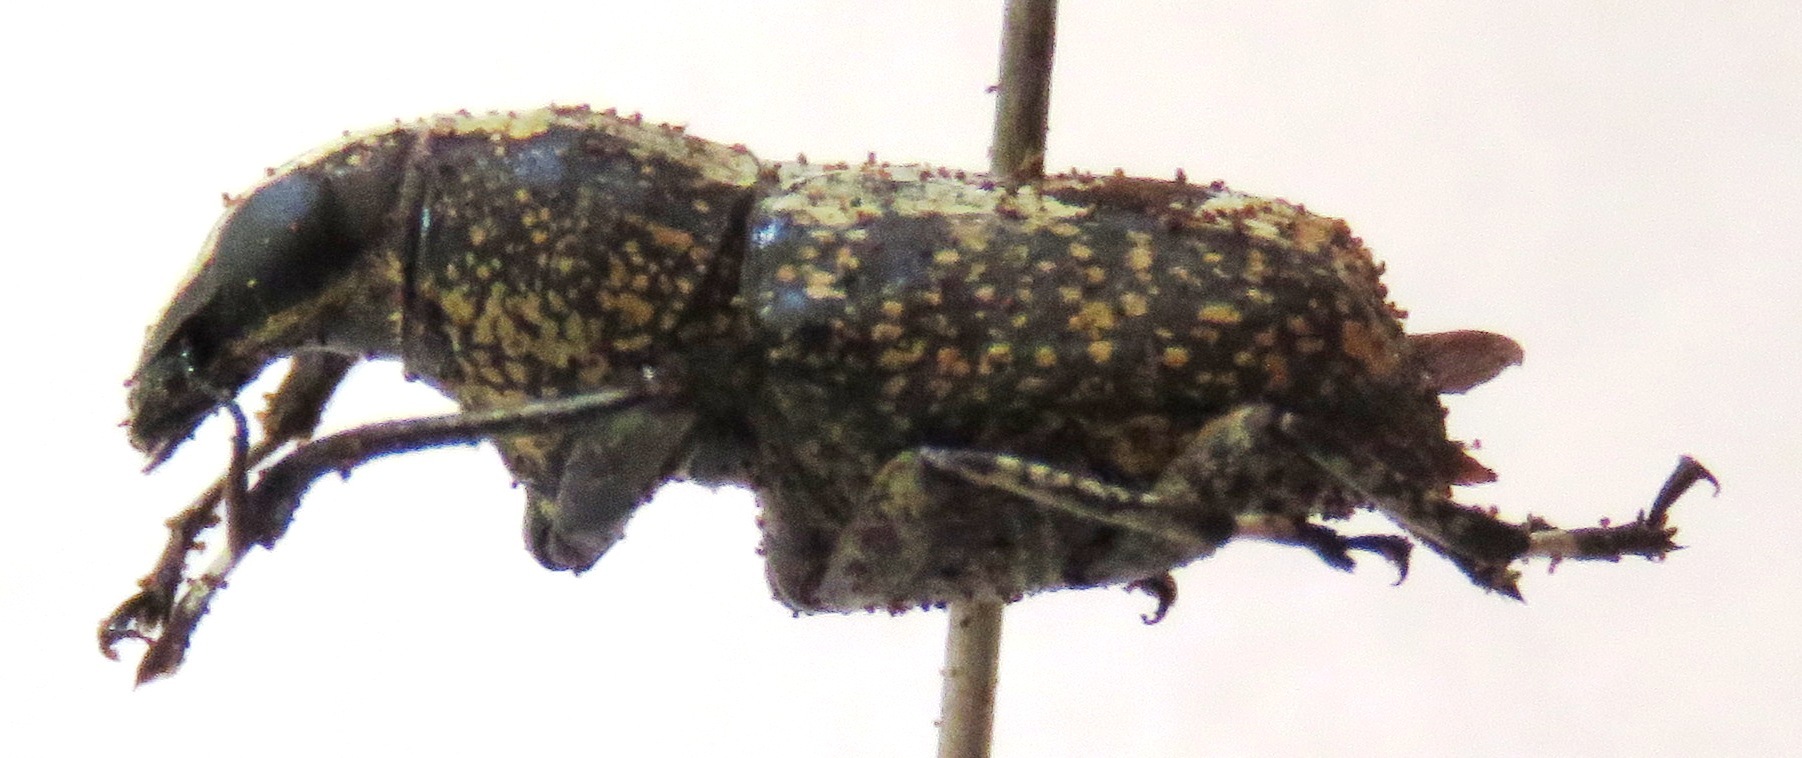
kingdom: Animalia
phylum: Arthropoda
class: Insecta
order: Coleoptera
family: Anthribidae
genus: Phaenithon
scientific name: Phaenithon curvipes
